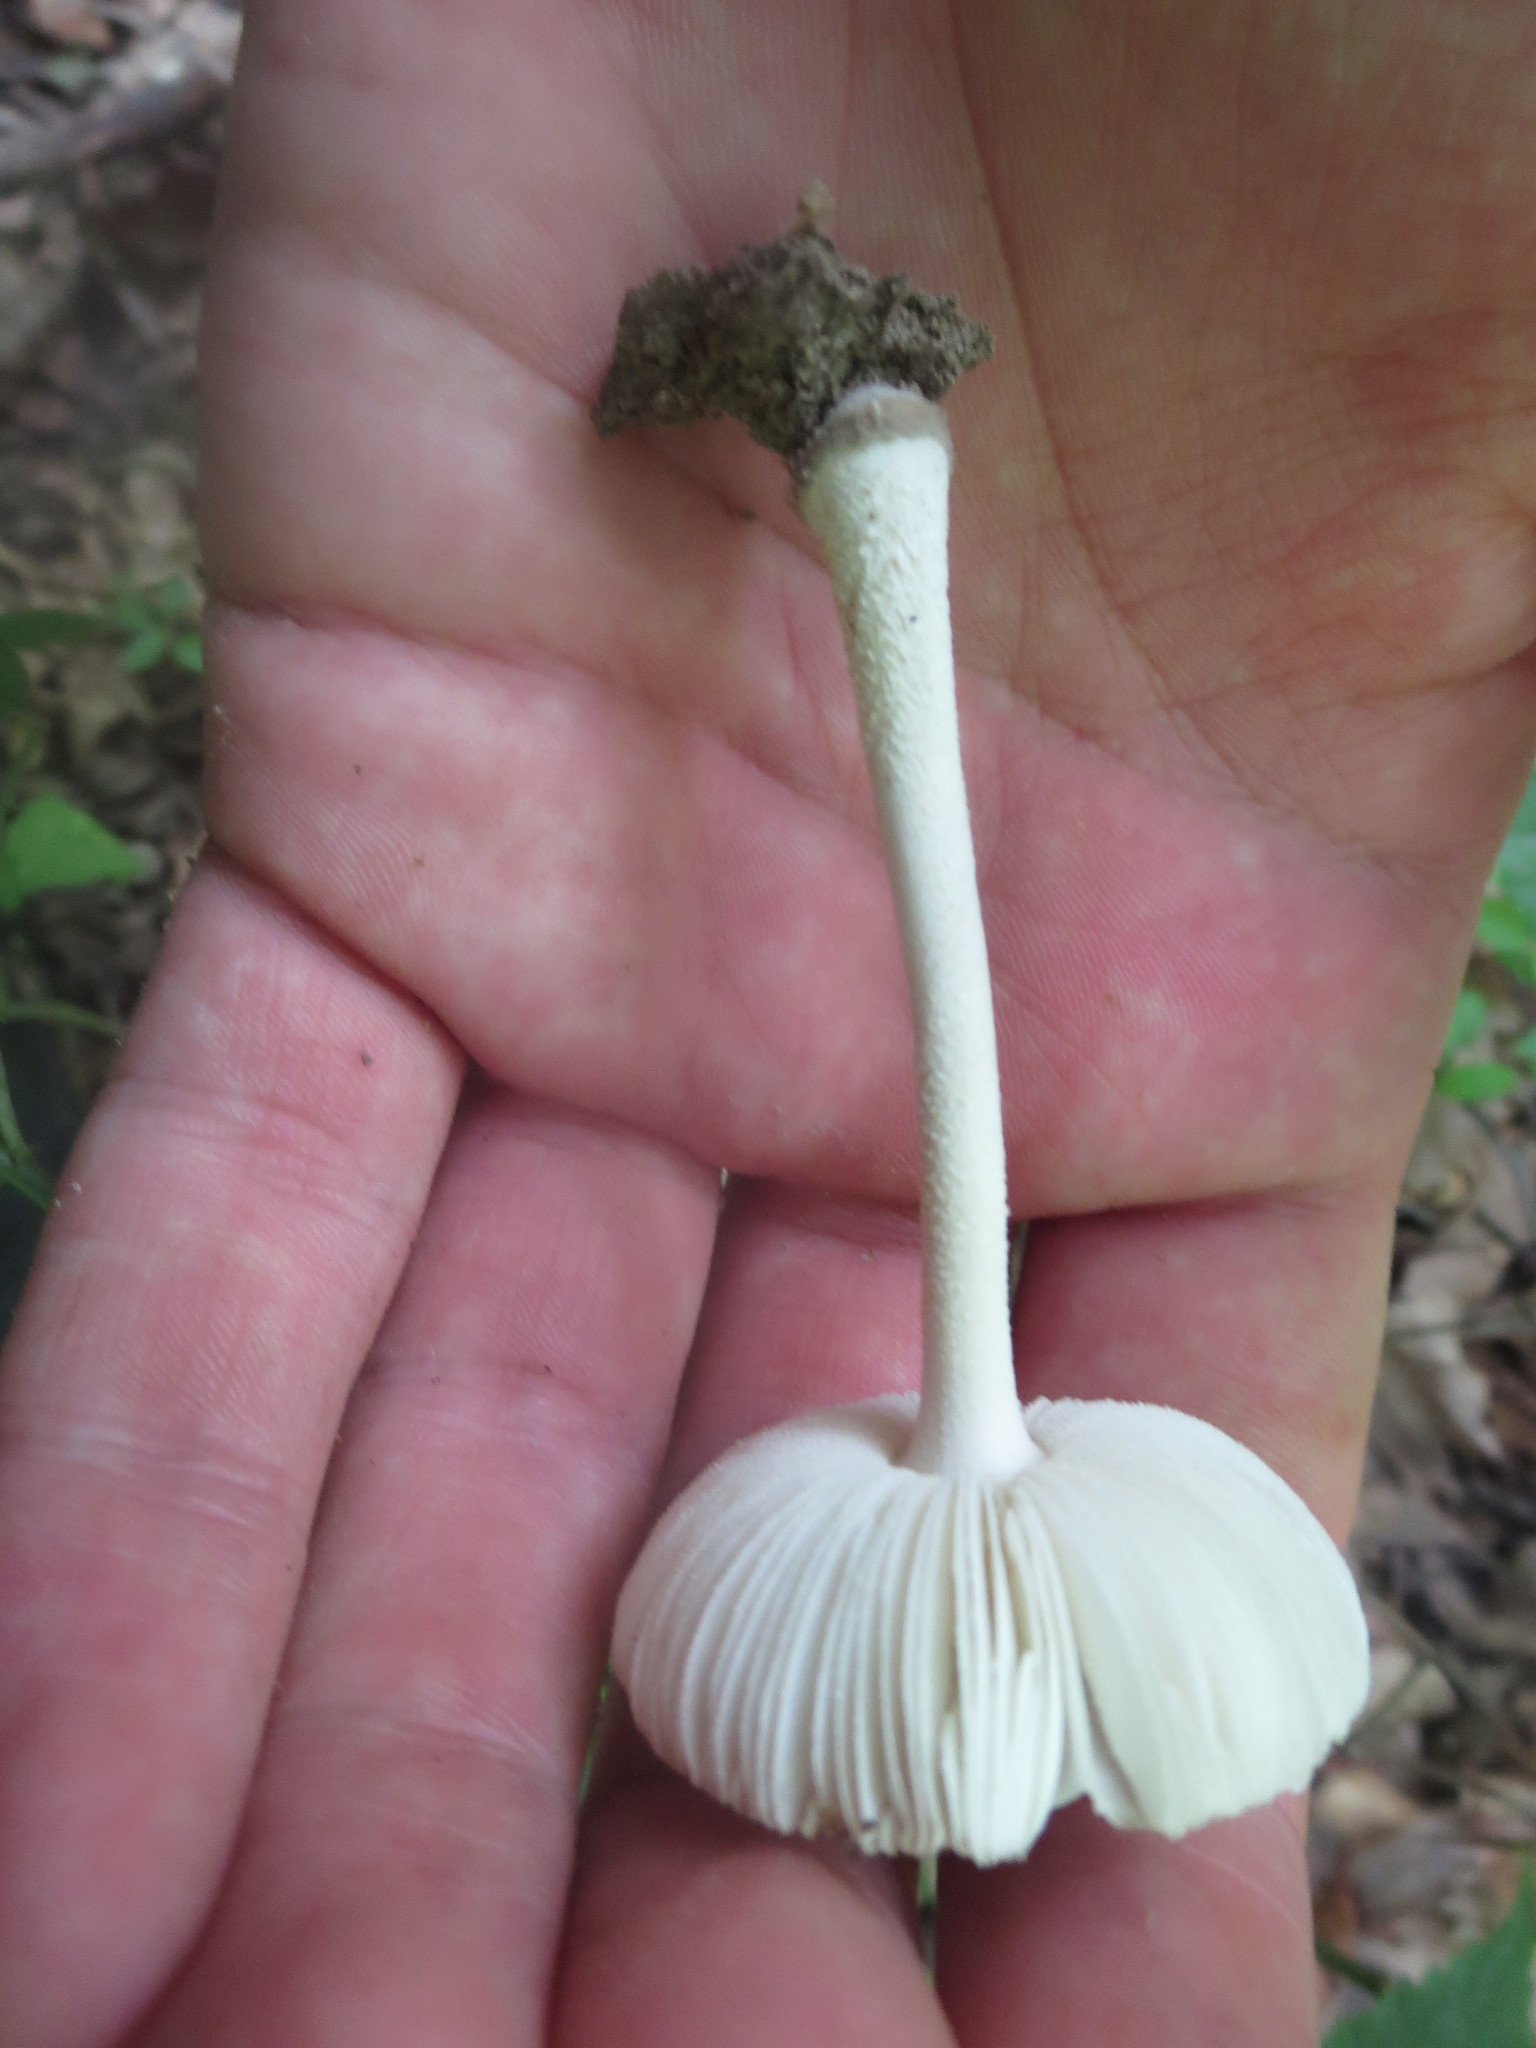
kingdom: Fungi
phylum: Basidiomycota
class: Agaricomycetes
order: Agaricales
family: Amanitaceae
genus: Amanita
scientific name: Amanita farinosa
